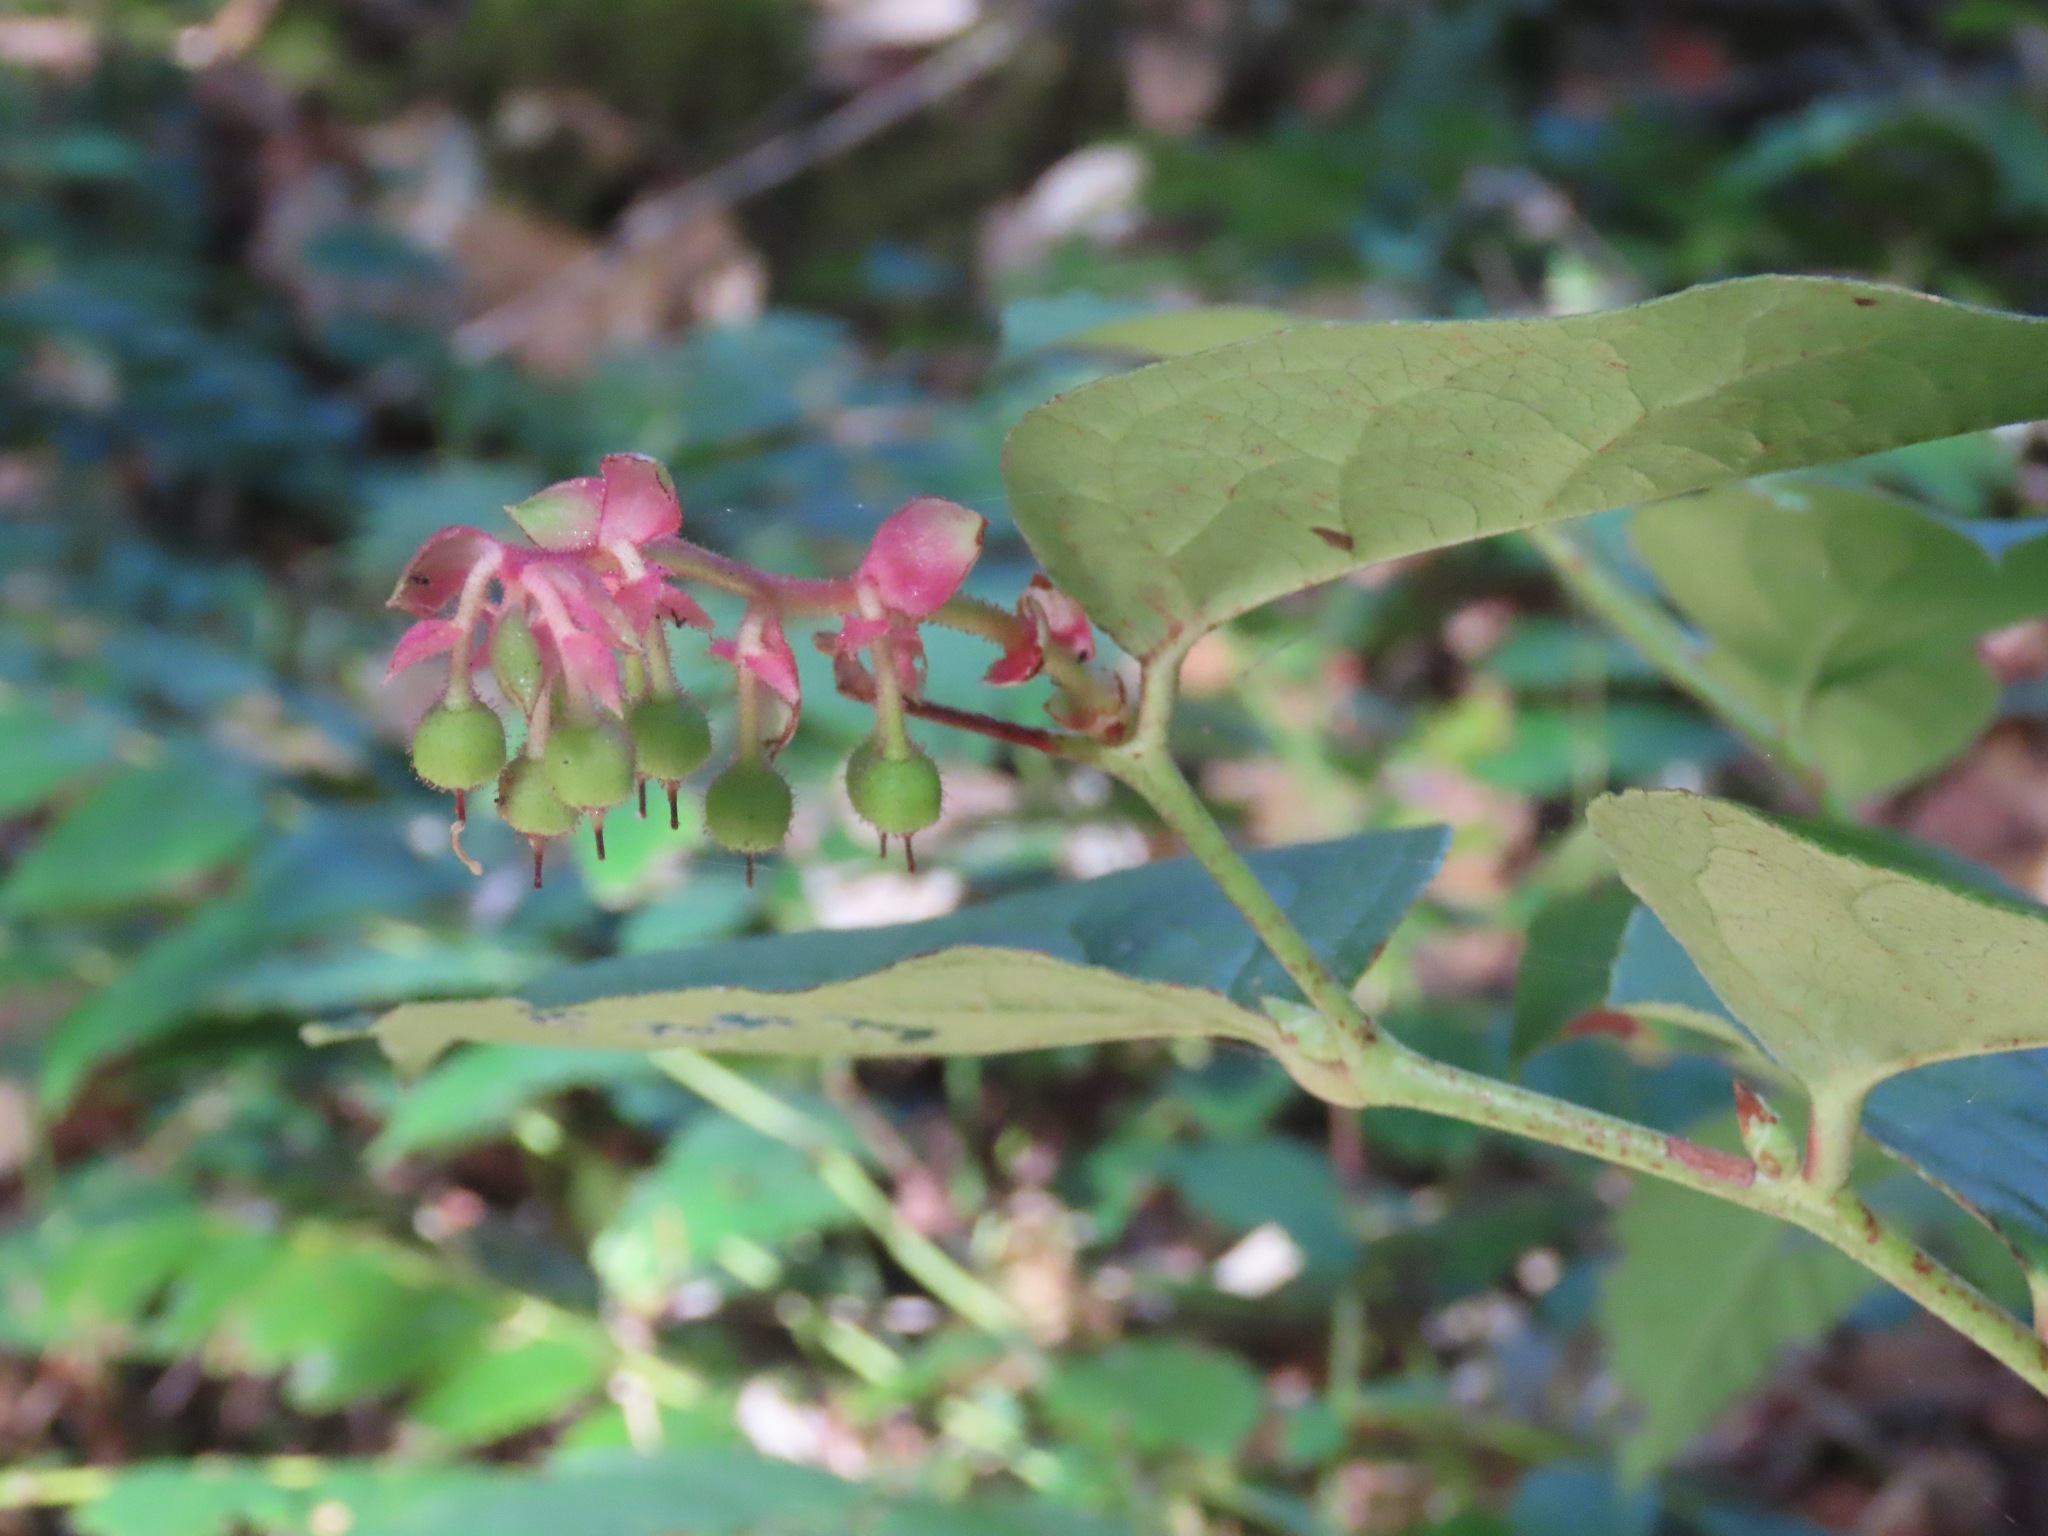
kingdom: Plantae
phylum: Tracheophyta
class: Magnoliopsida
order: Ericales
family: Ericaceae
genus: Gaultheria
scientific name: Gaultheria shallon
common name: Shallon
